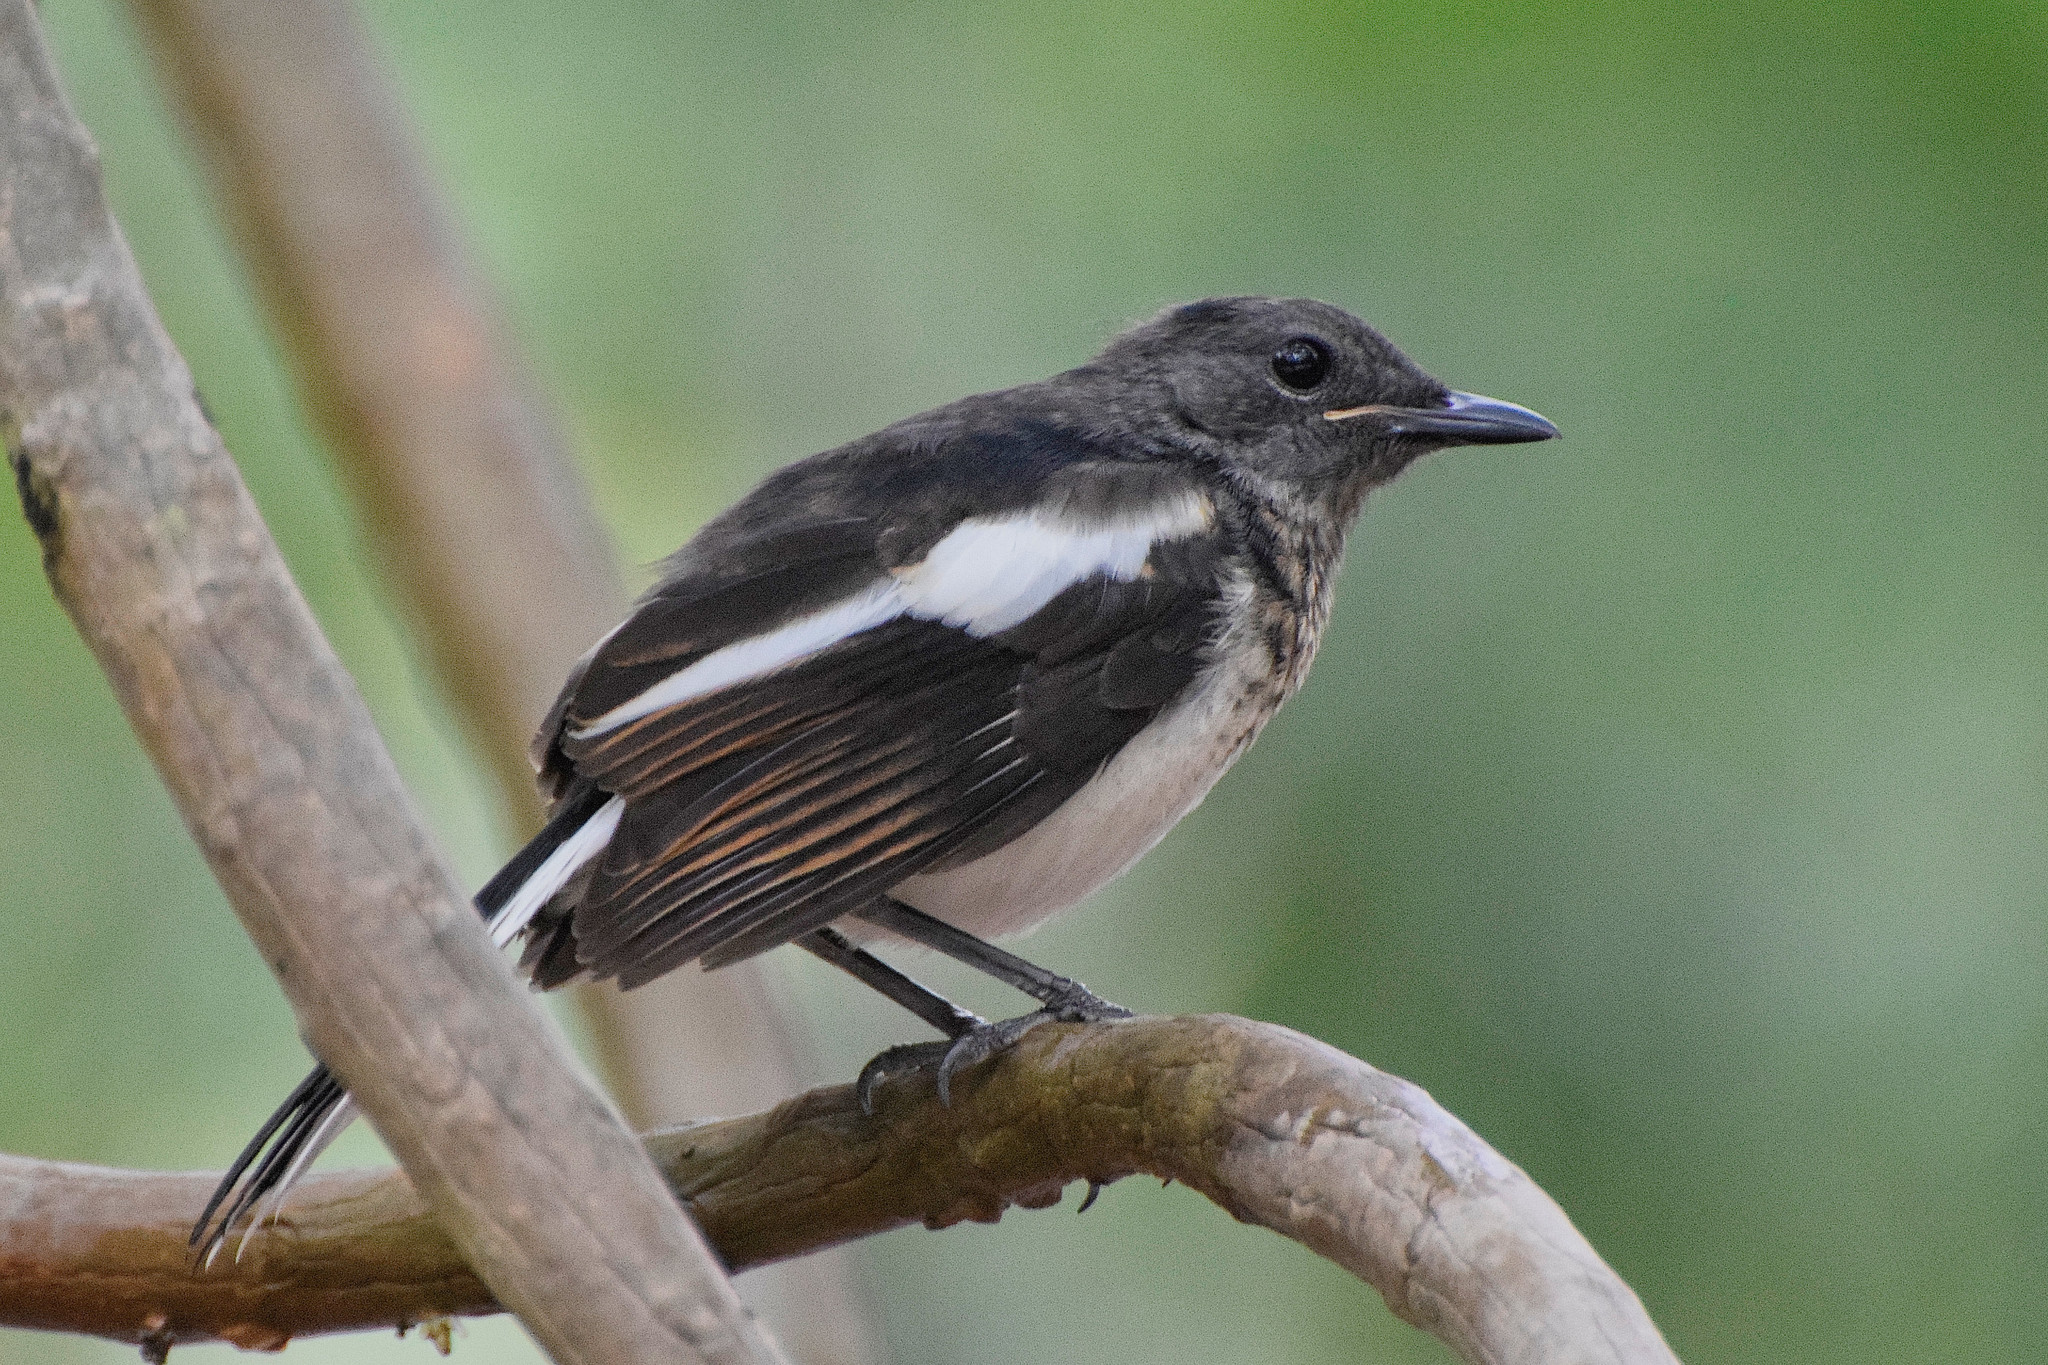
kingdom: Animalia
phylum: Chordata
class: Aves
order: Passeriformes
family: Muscicapidae
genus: Copsychus
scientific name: Copsychus saularis
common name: Oriental magpie-robin
